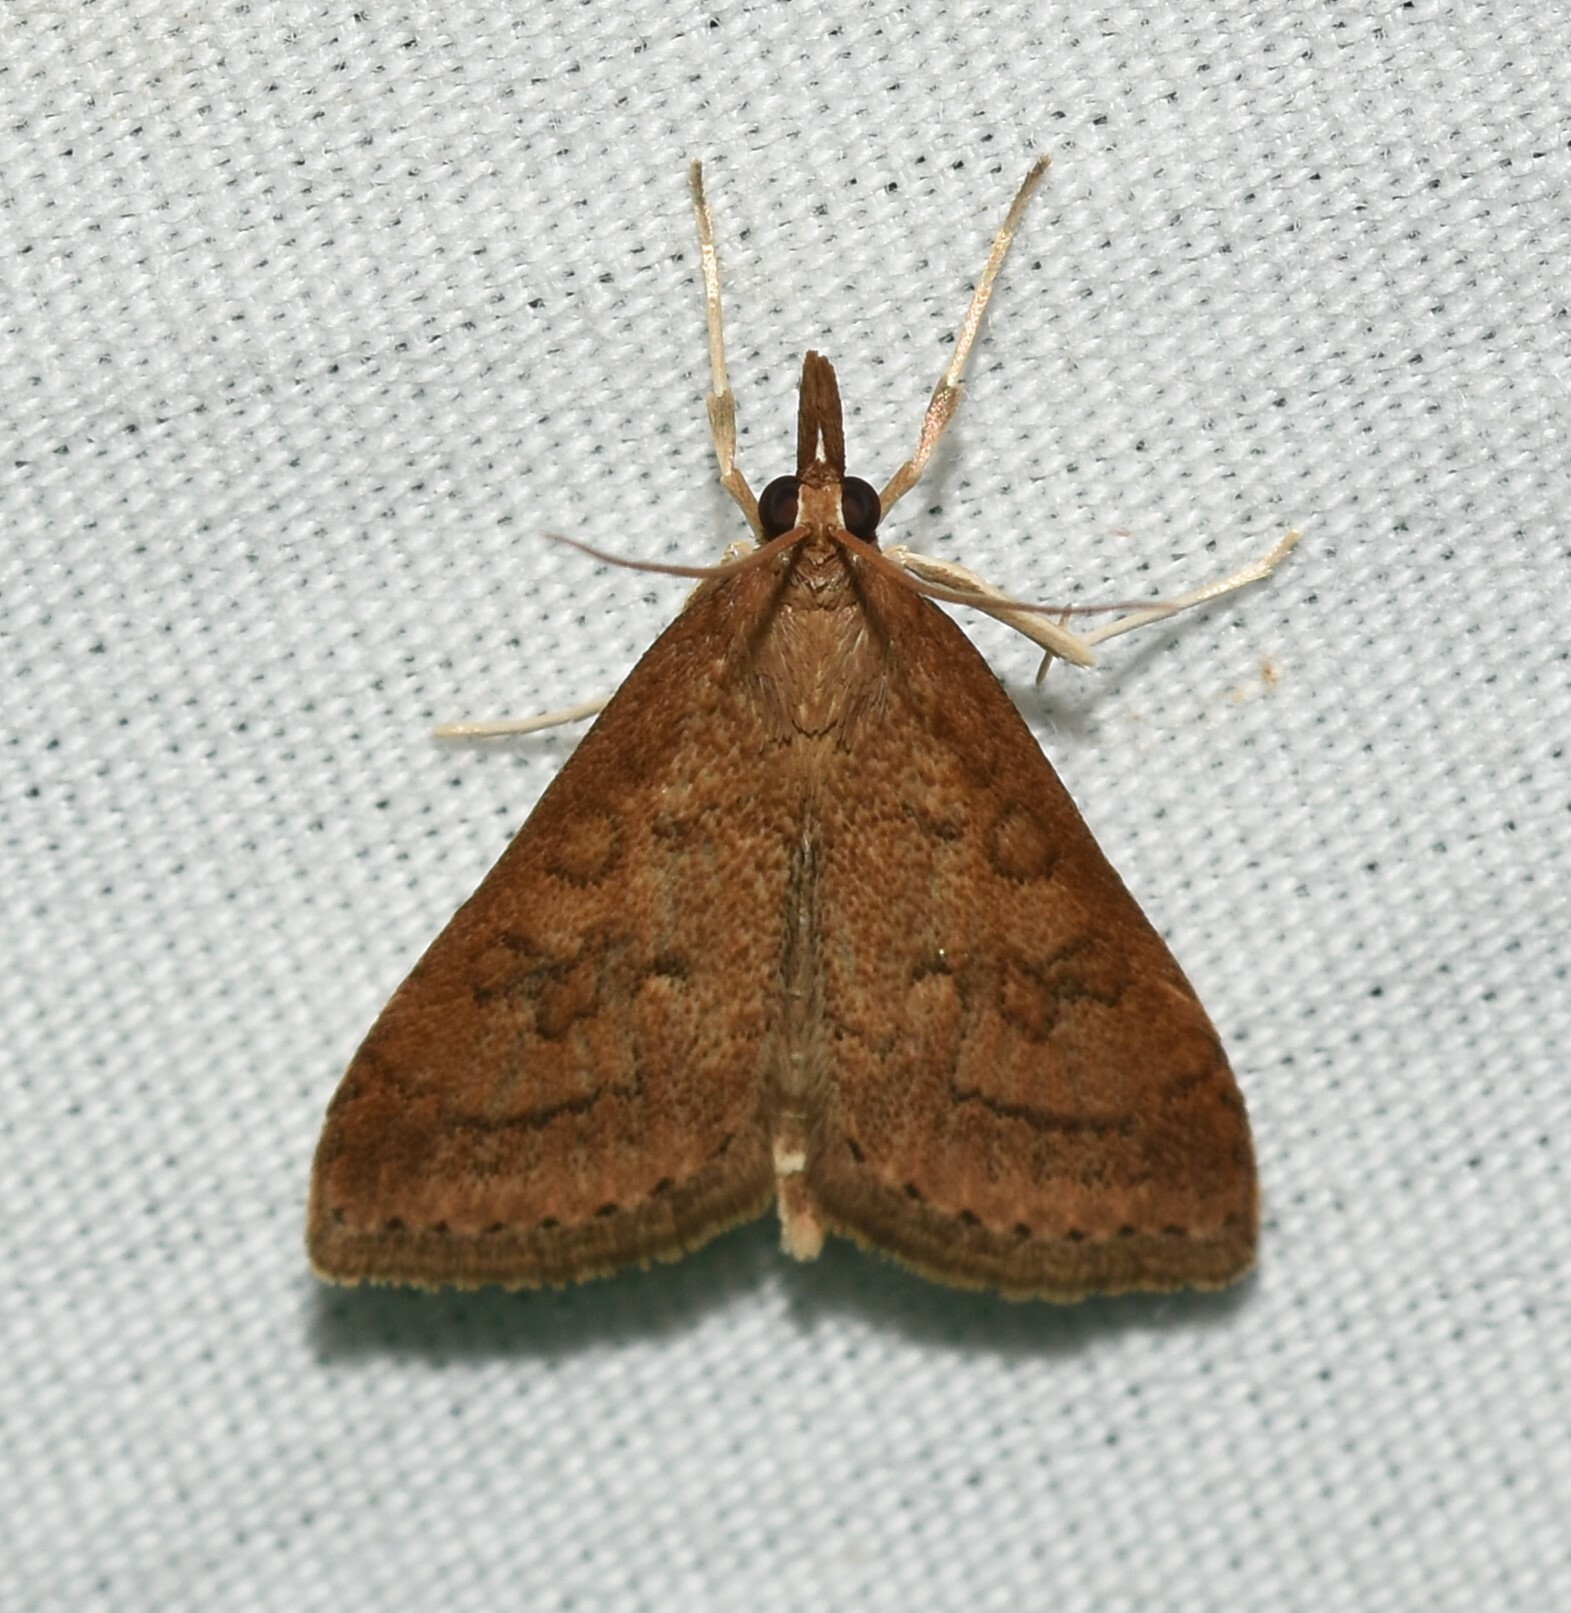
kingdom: Animalia
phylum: Arthropoda
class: Insecta
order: Lepidoptera
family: Crambidae
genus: Udea
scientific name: Udea rubigalis
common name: Celery leaftier moth
